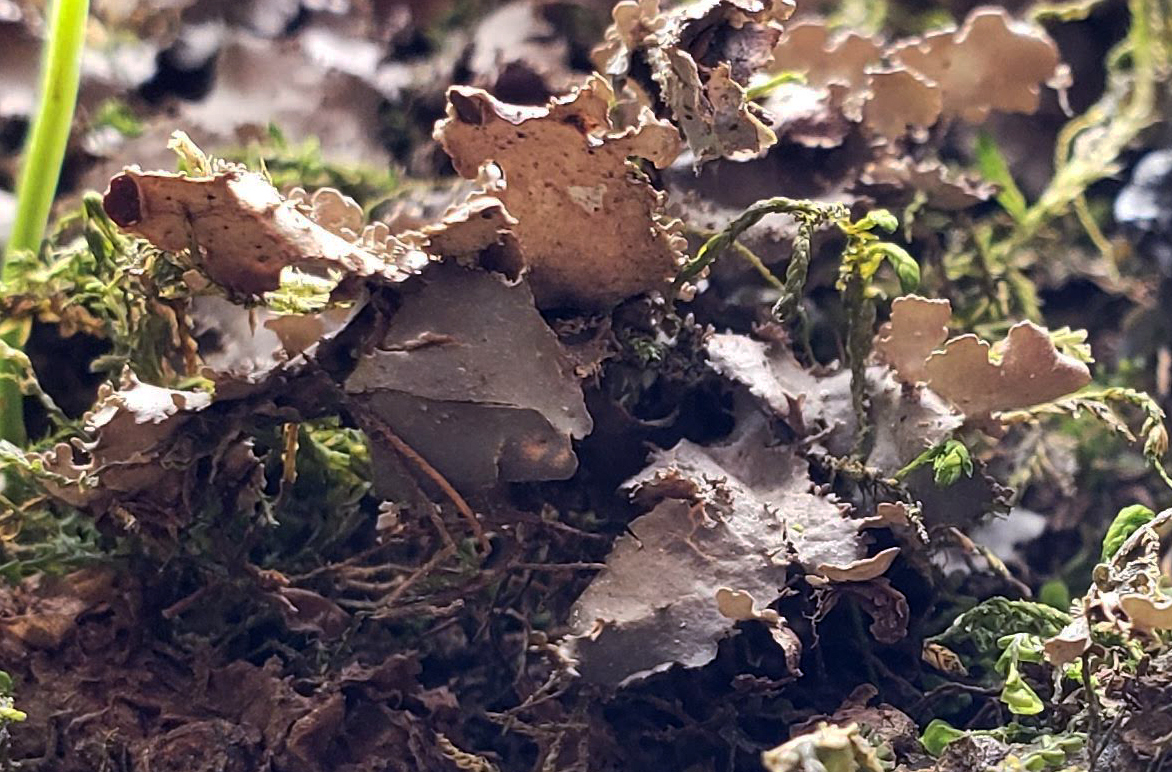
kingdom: Fungi
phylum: Ascomycota
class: Lecanoromycetes
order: Peltigerales
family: Nephromataceae
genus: Nephroma
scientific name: Nephroma helveticum
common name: Fringed kidney lichen
